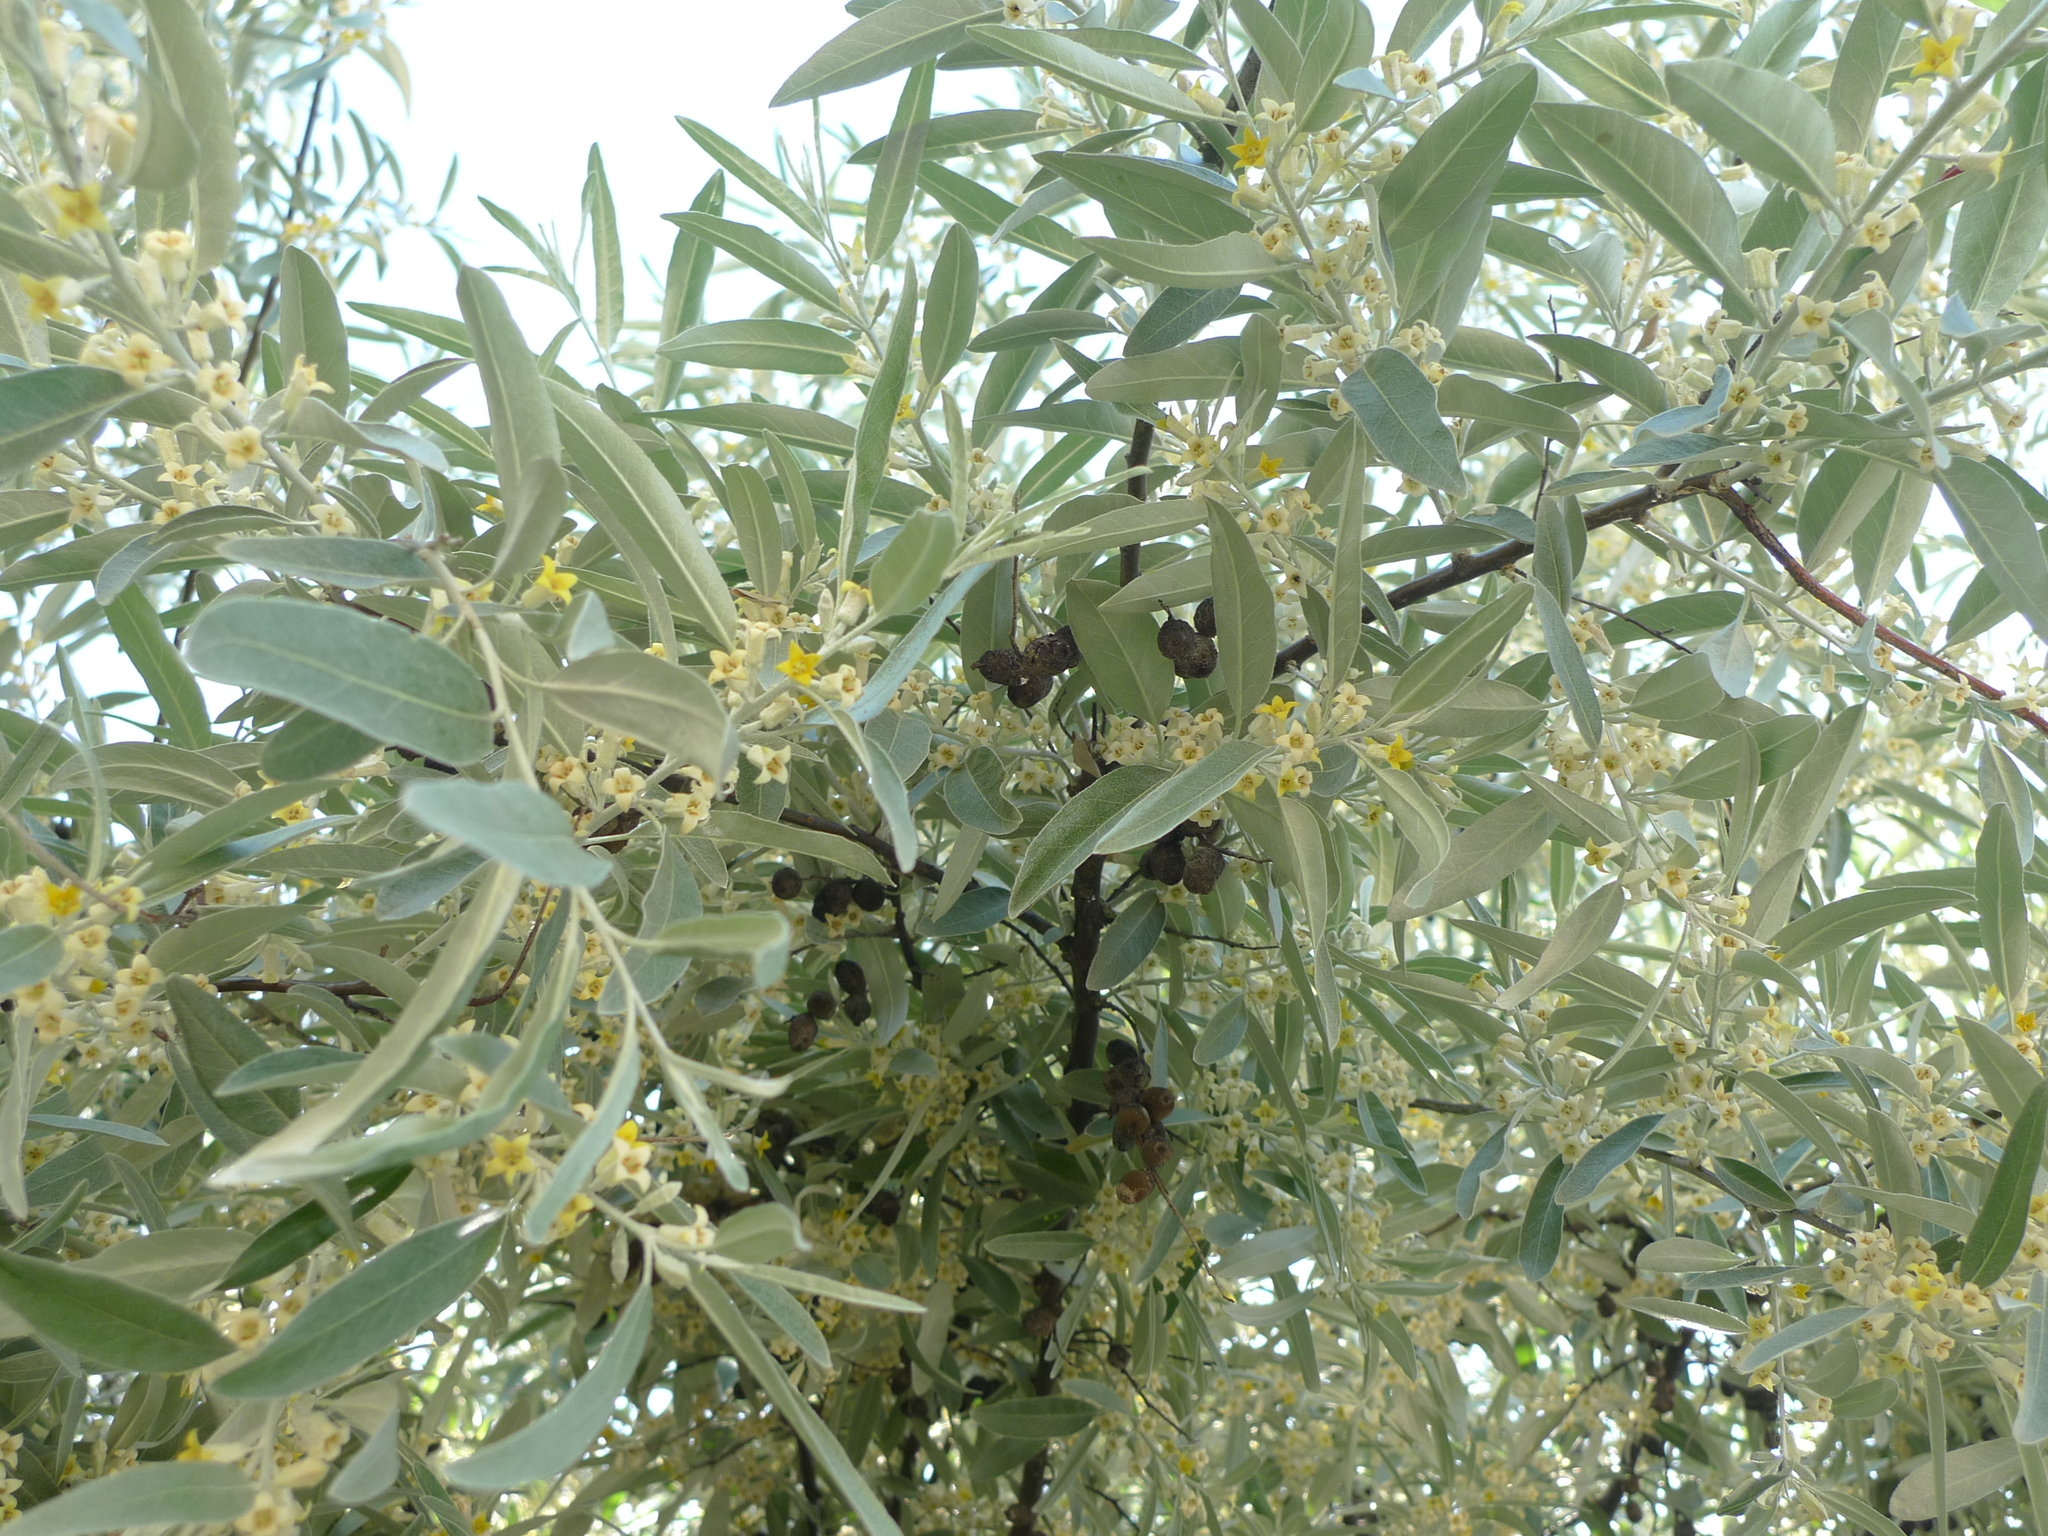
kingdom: Plantae
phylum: Tracheophyta
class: Magnoliopsida
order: Rosales
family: Elaeagnaceae
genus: Elaeagnus
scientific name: Elaeagnus angustifolia
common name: Russian olive
